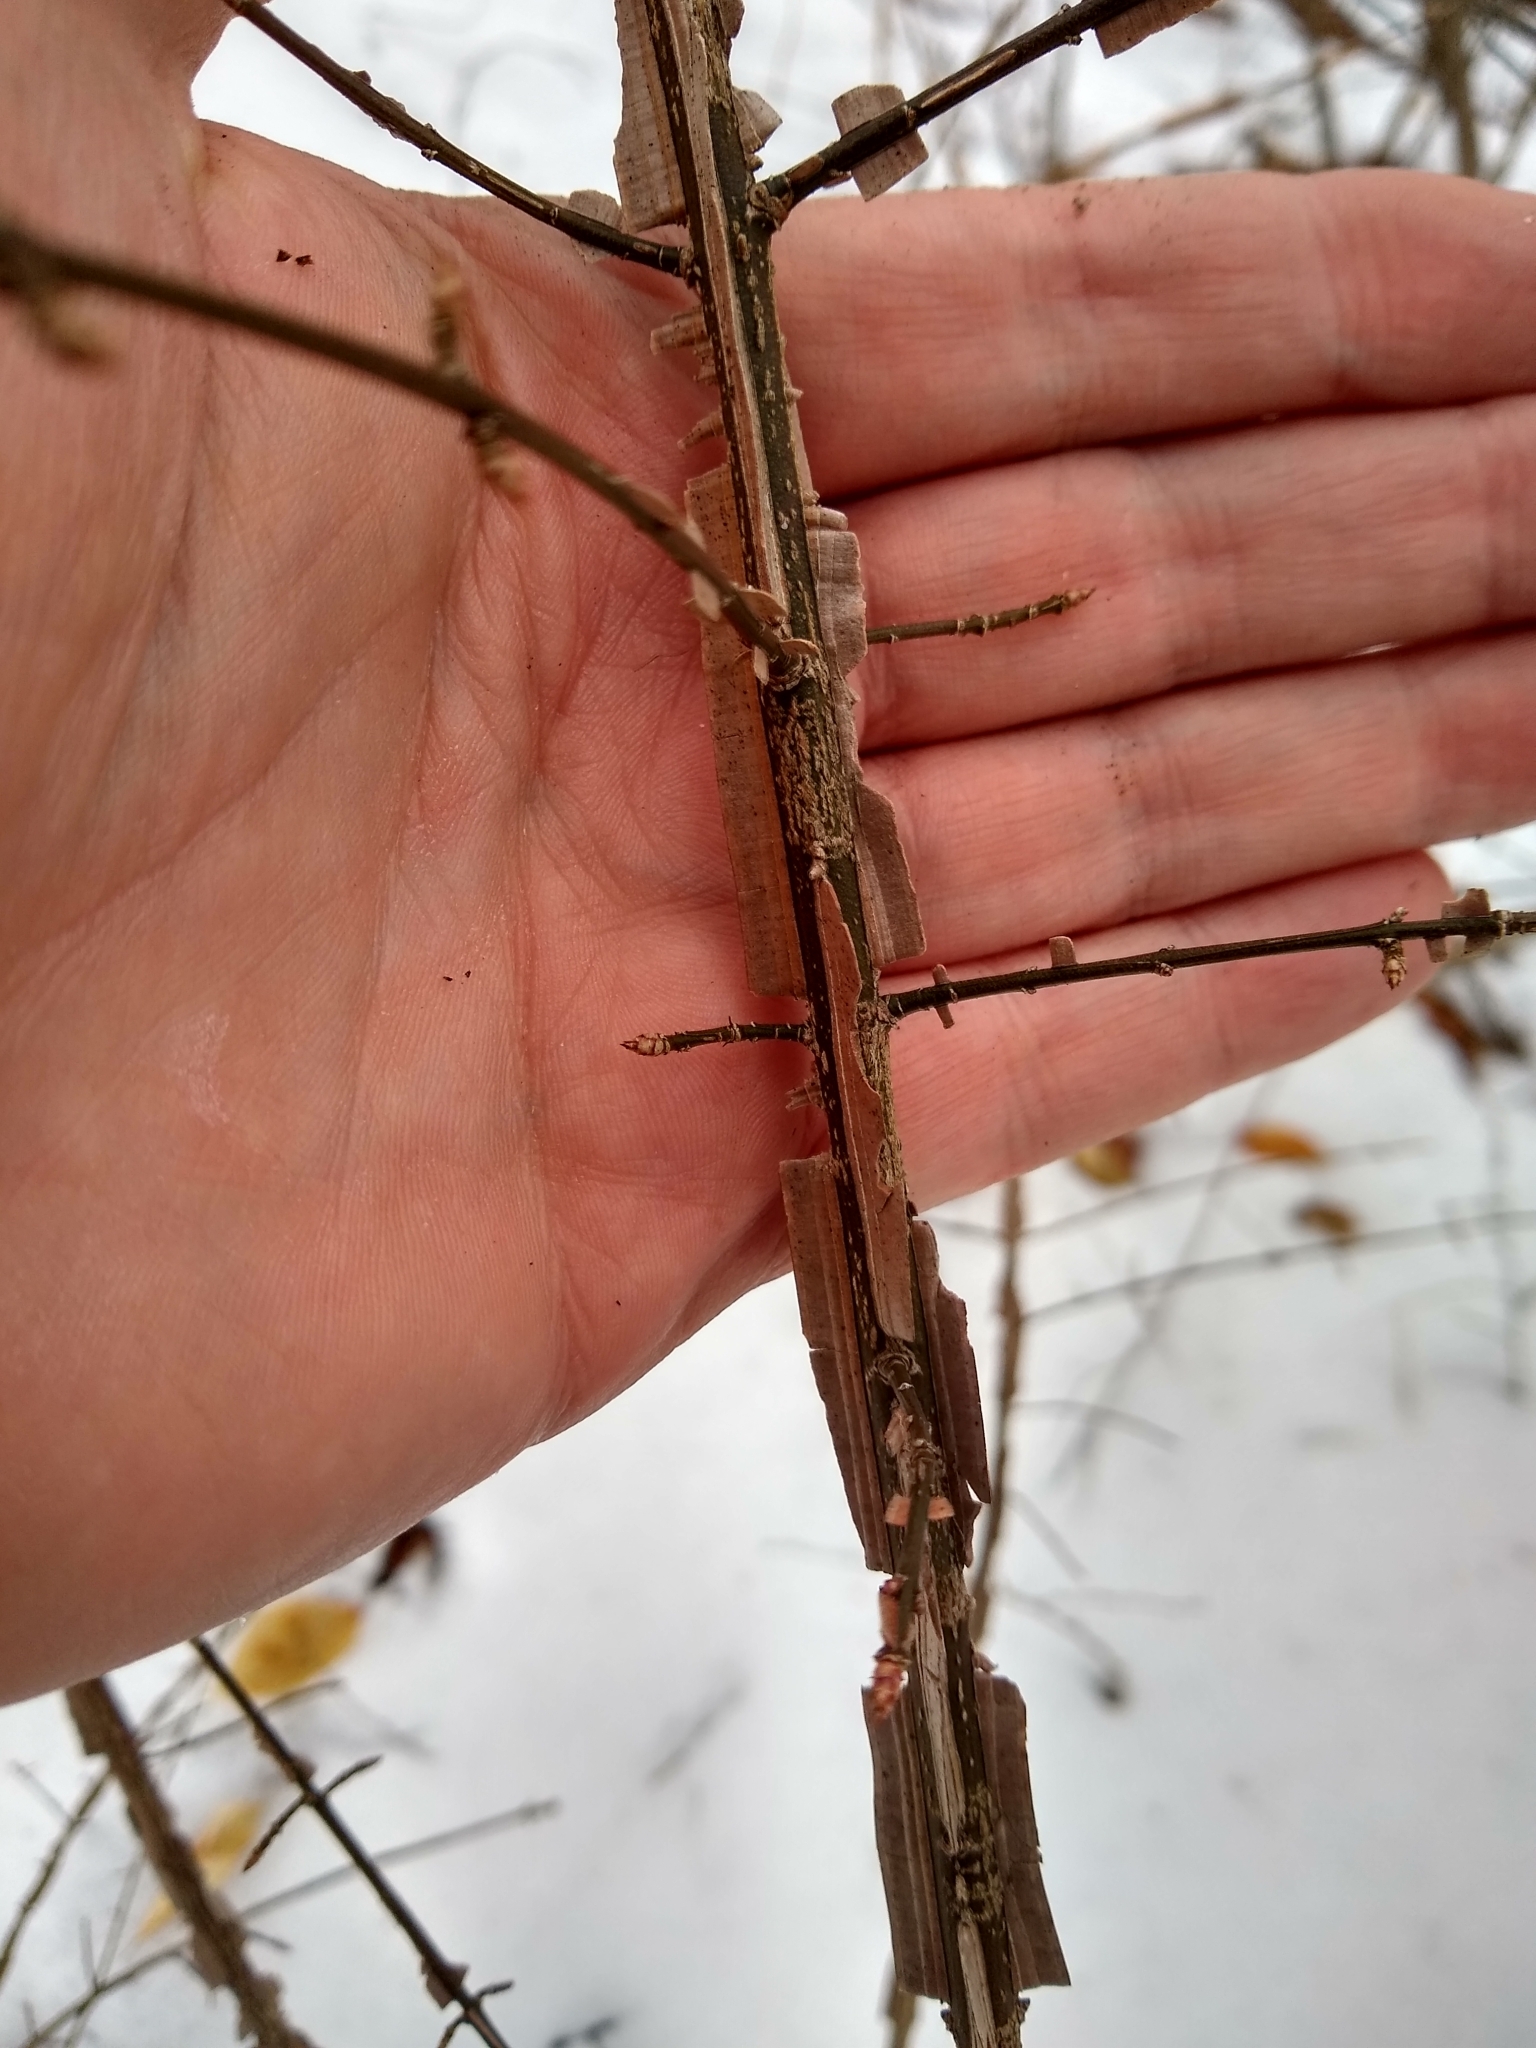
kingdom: Plantae
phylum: Tracheophyta
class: Magnoliopsida
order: Celastrales
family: Celastraceae
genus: Euonymus
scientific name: Euonymus alatus
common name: Winged euonymus
